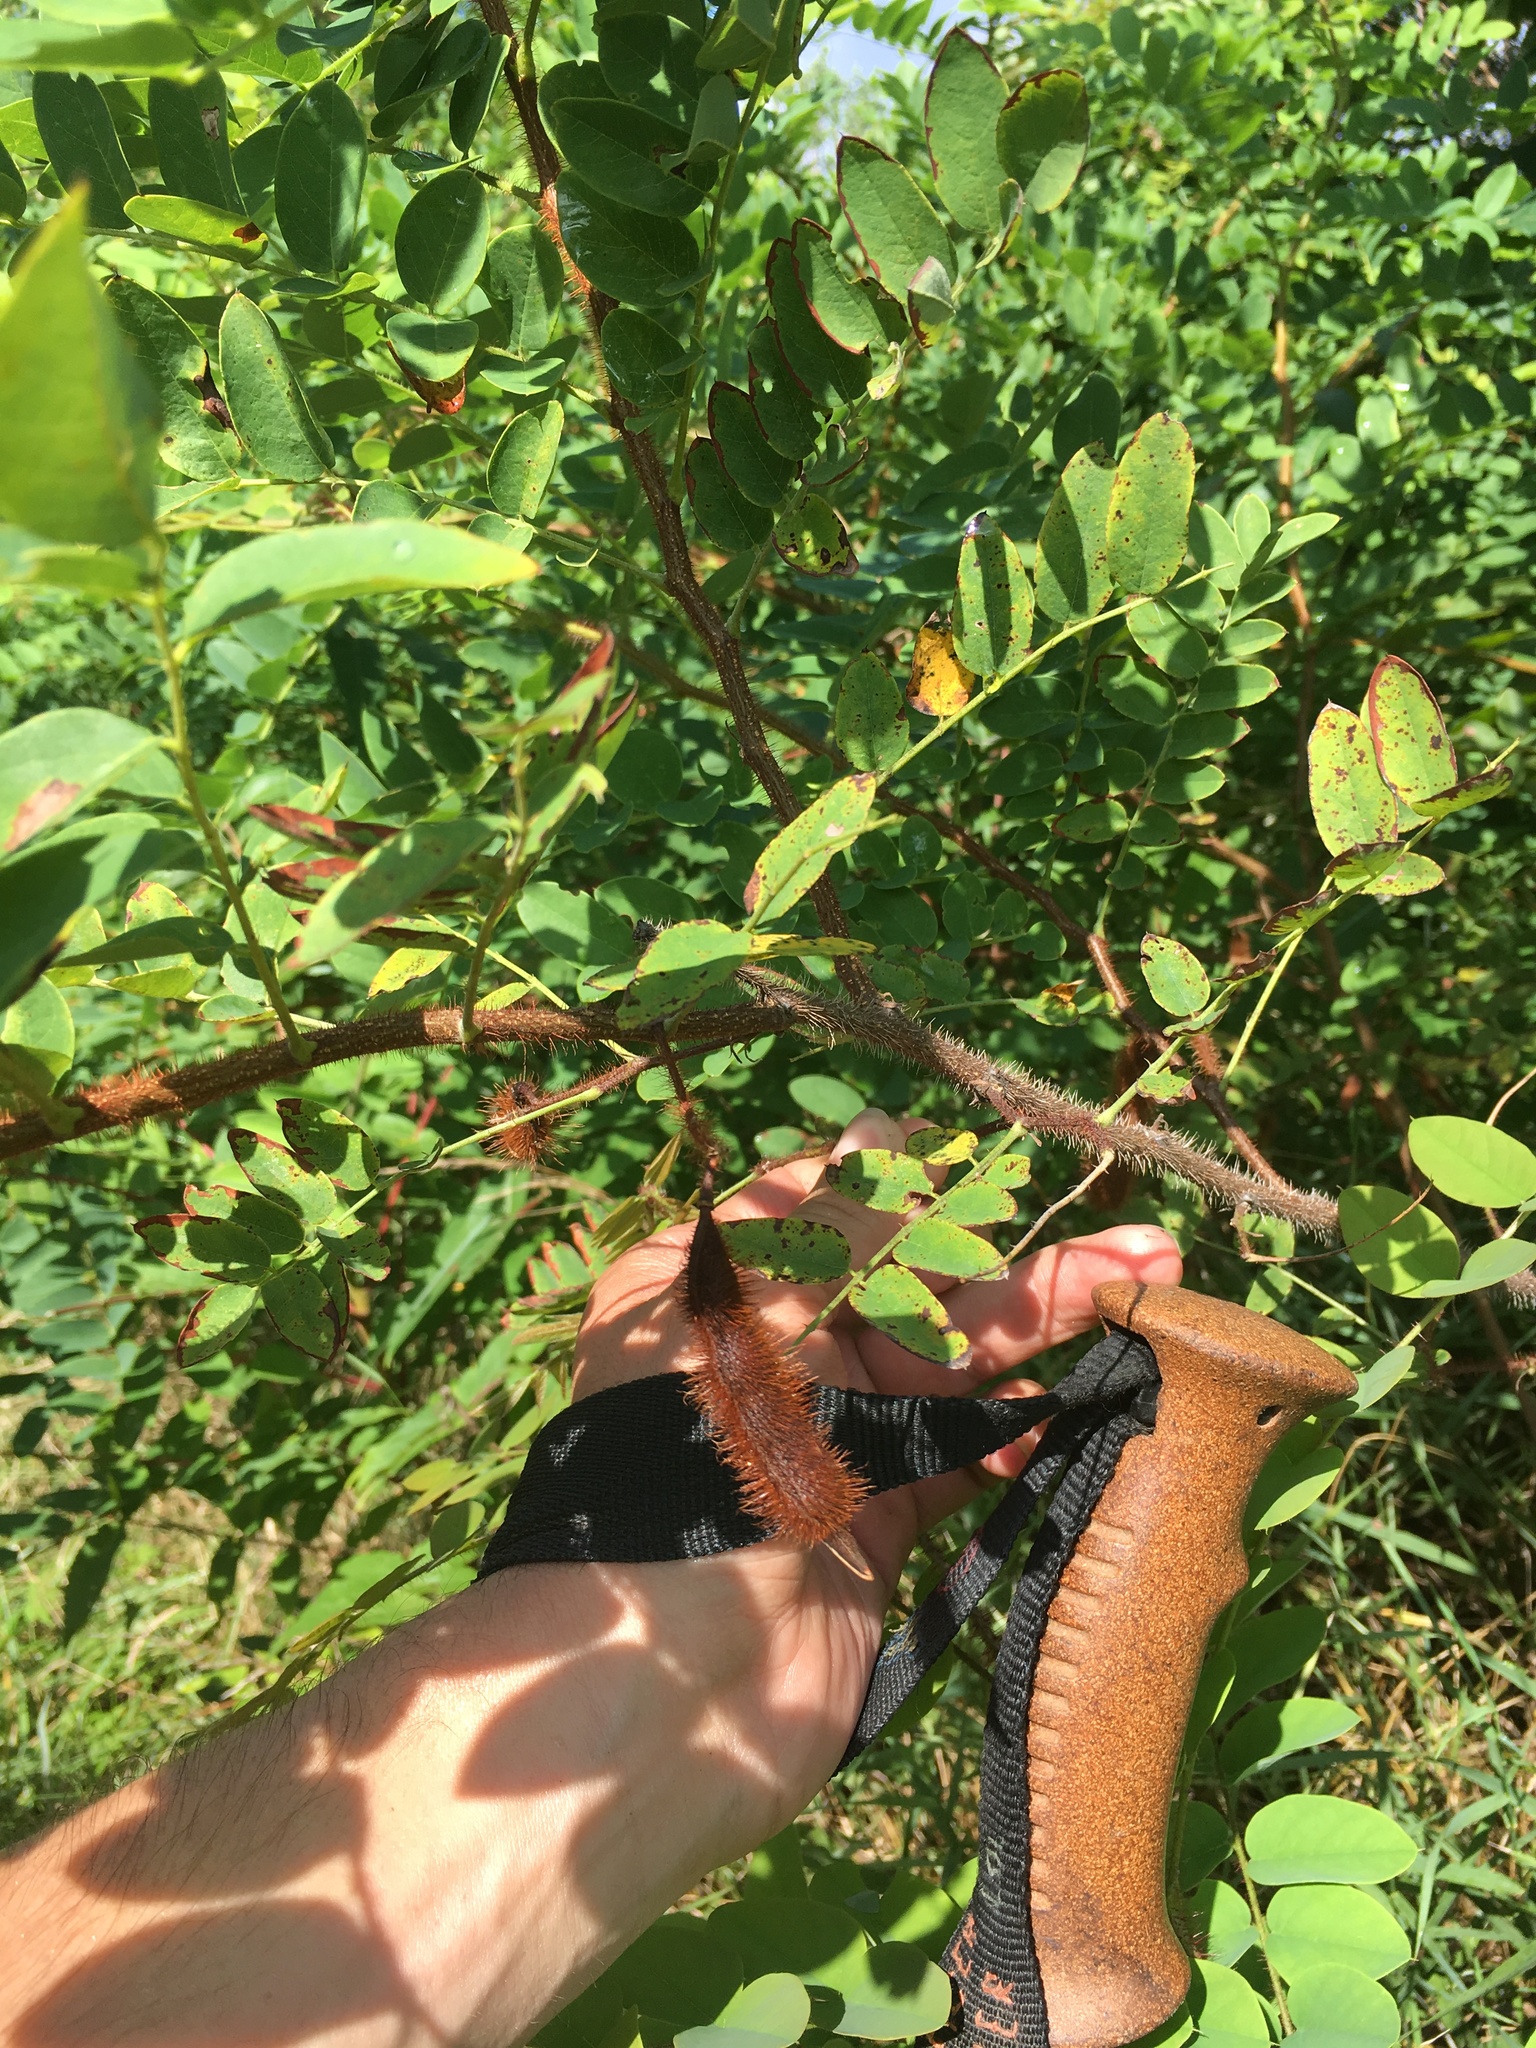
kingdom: Plantae
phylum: Tracheophyta
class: Magnoliopsida
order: Fabales
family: Fabaceae
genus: Robinia
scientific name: Robinia hispida
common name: Bristly locust
